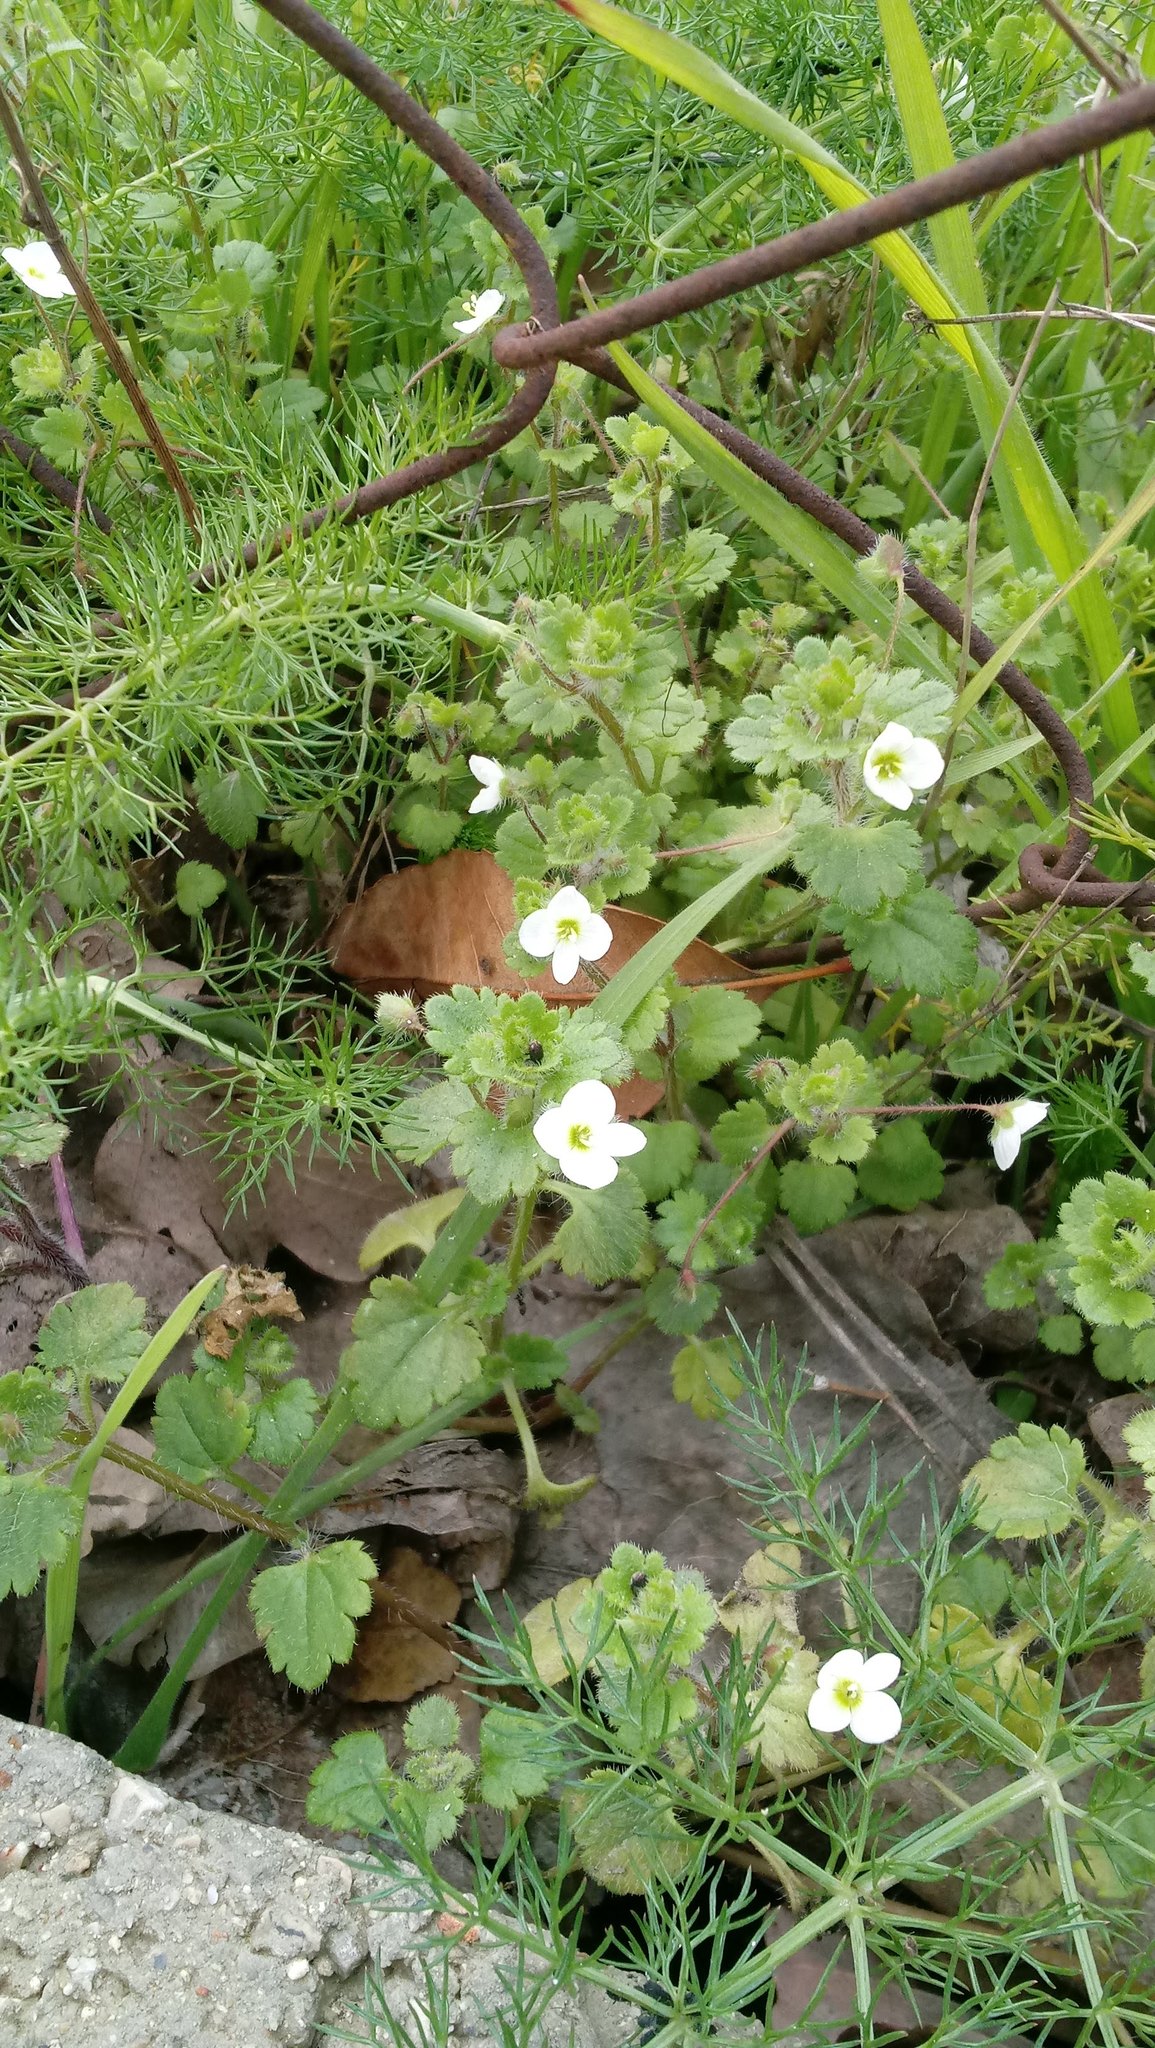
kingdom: Plantae
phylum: Tracheophyta
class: Magnoliopsida
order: Lamiales
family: Plantaginaceae
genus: Veronica
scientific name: Veronica cymbalaria
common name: Pale speedwell
